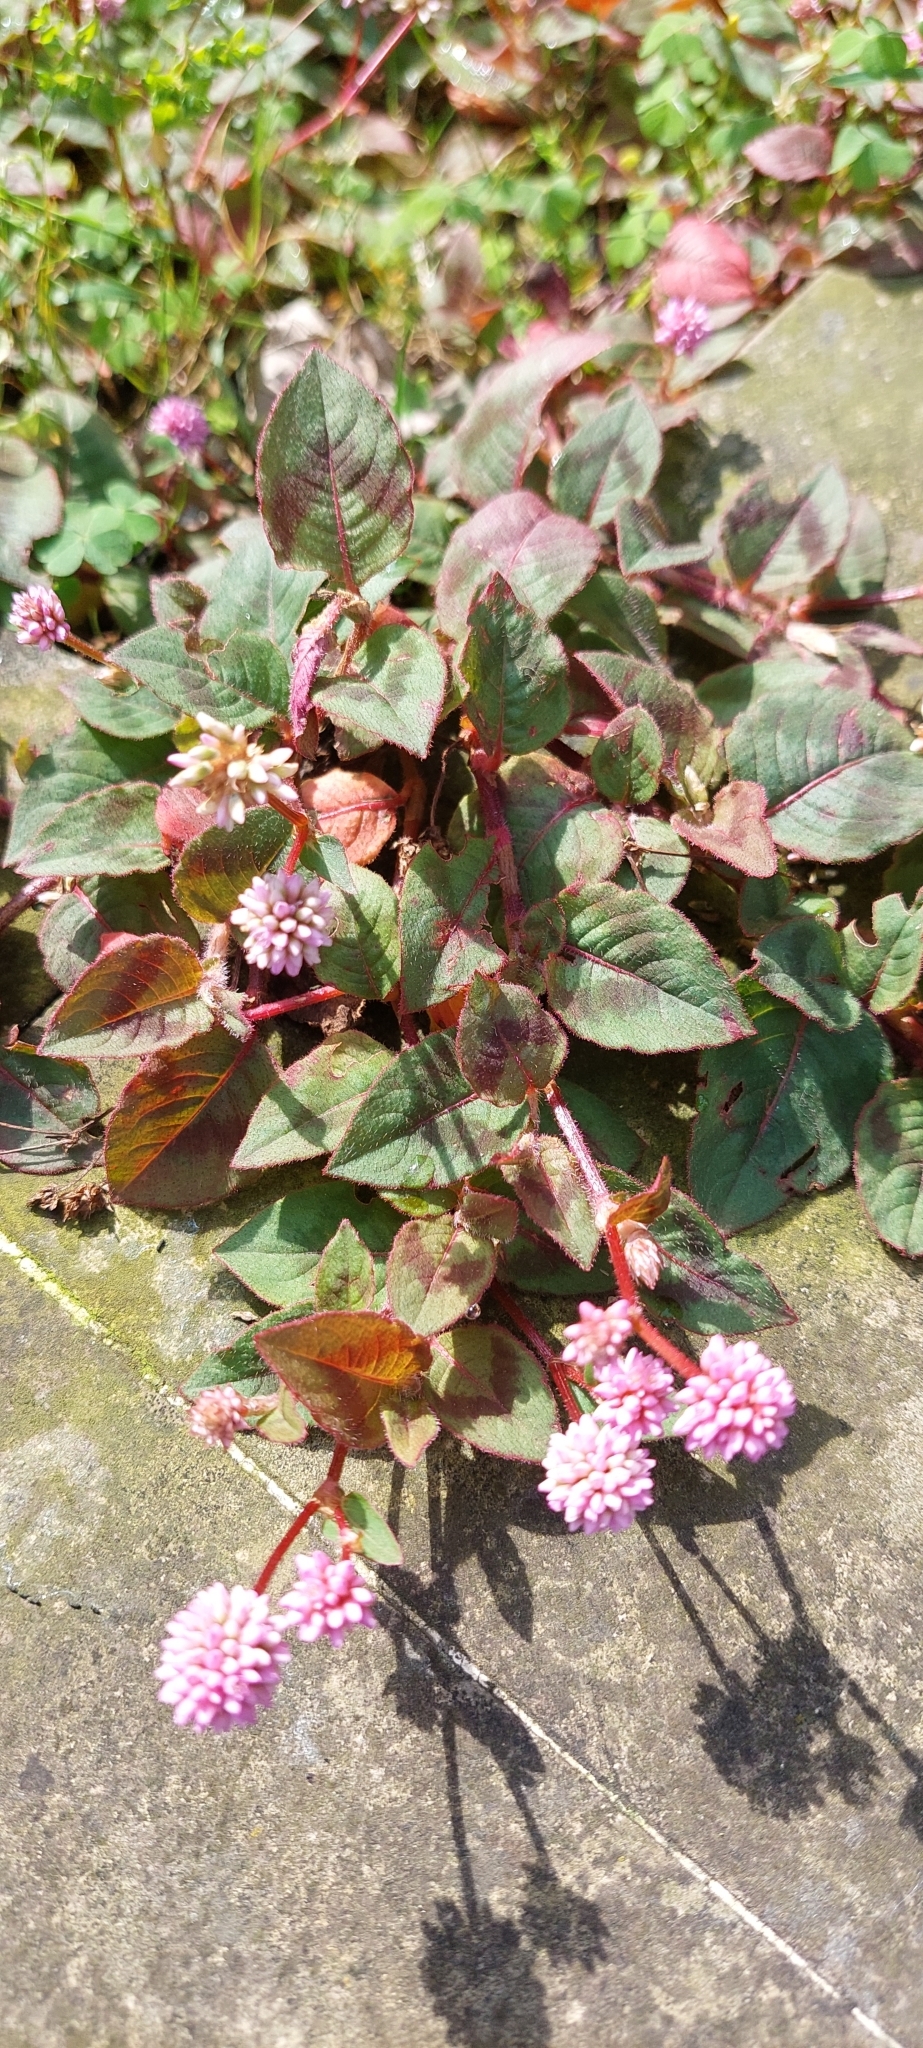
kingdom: Plantae
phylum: Tracheophyta
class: Magnoliopsida
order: Caryophyllales
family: Polygonaceae
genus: Persicaria
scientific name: Persicaria capitata
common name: Pinkhead smartweed
